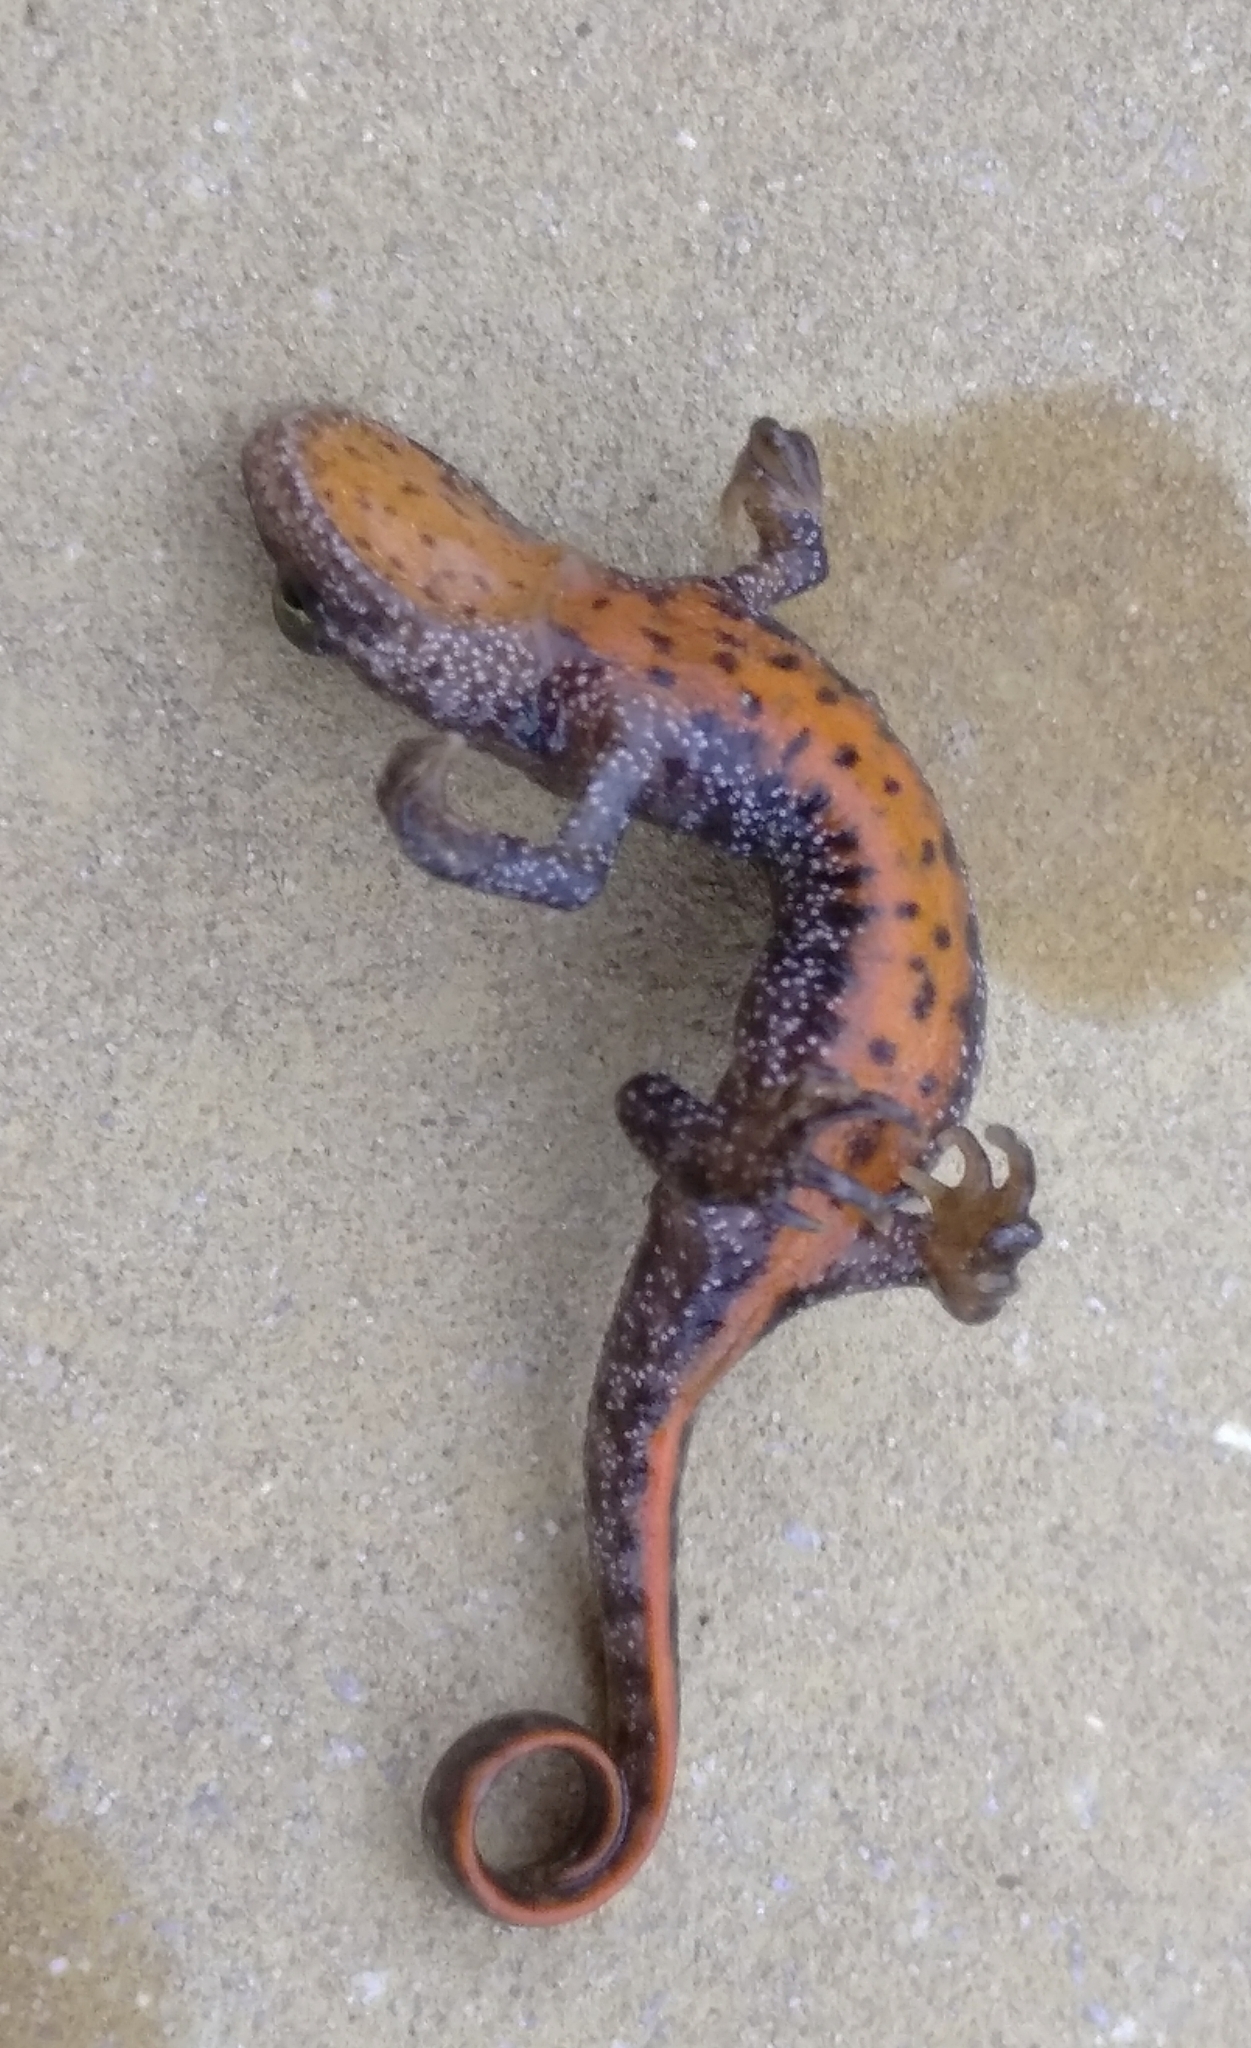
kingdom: Animalia
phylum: Chordata
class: Amphibia
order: Caudata
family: Salamandridae
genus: Triturus
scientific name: Triturus ivanbureschi
